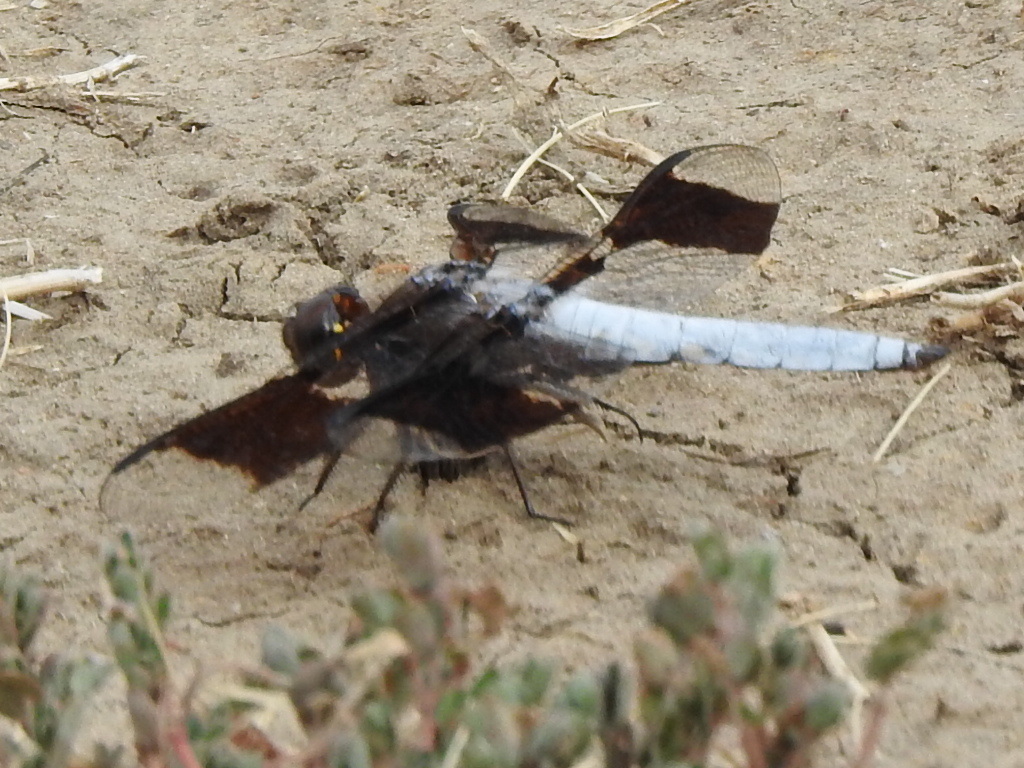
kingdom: Animalia
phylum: Arthropoda
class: Insecta
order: Odonata
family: Libellulidae
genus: Plathemis
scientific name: Plathemis lydia
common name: Common whitetail
